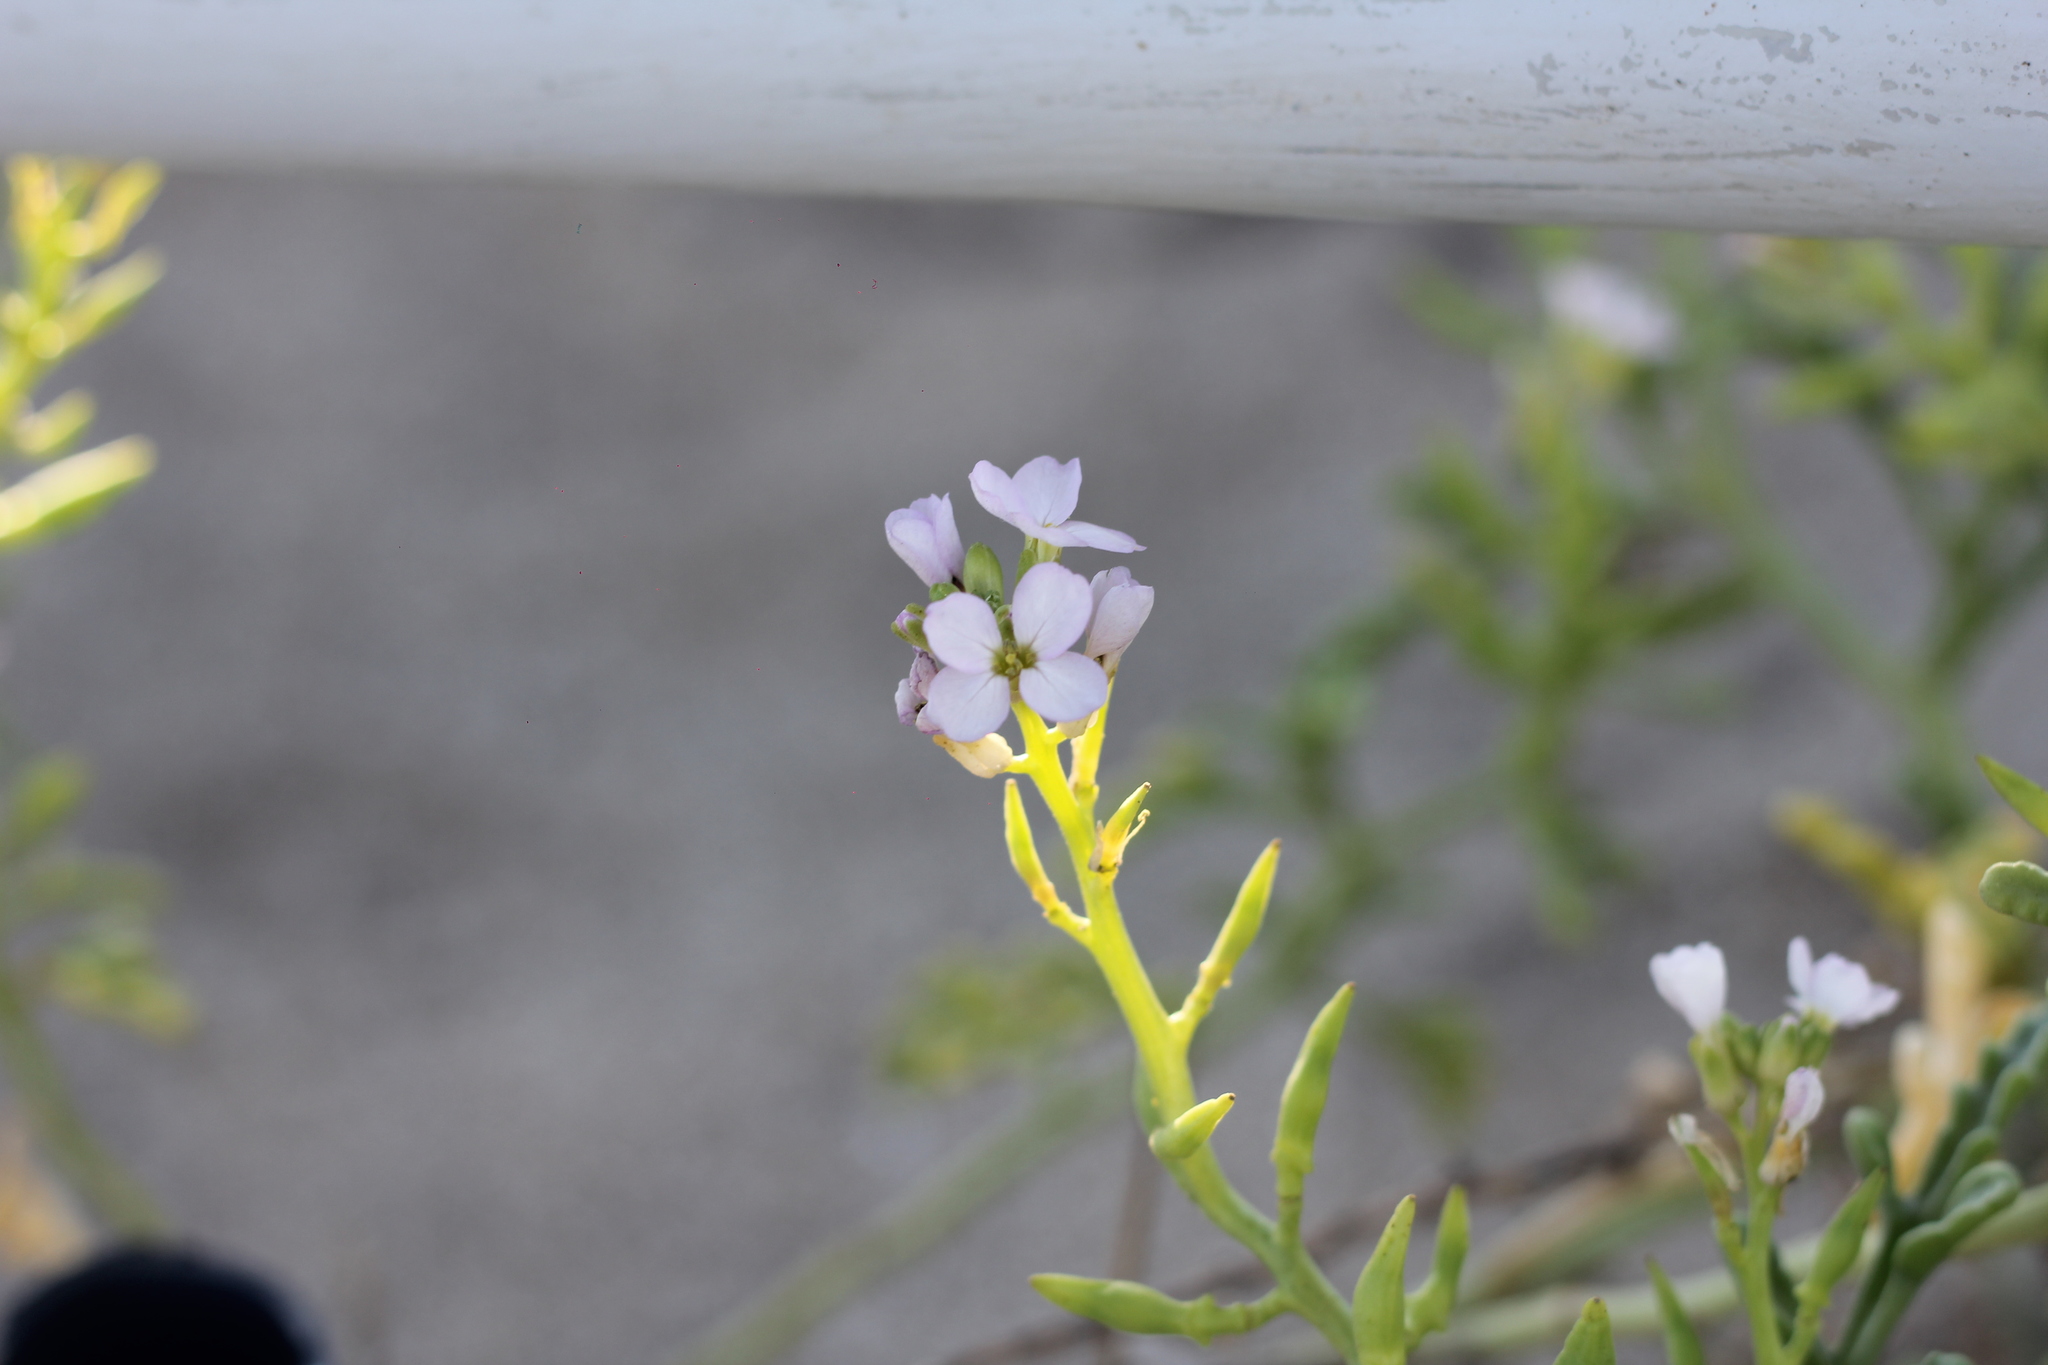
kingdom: Plantae
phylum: Tracheophyta
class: Magnoliopsida
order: Brassicales
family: Brassicaceae
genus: Cakile
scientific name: Cakile maritima
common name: Sea rocket
